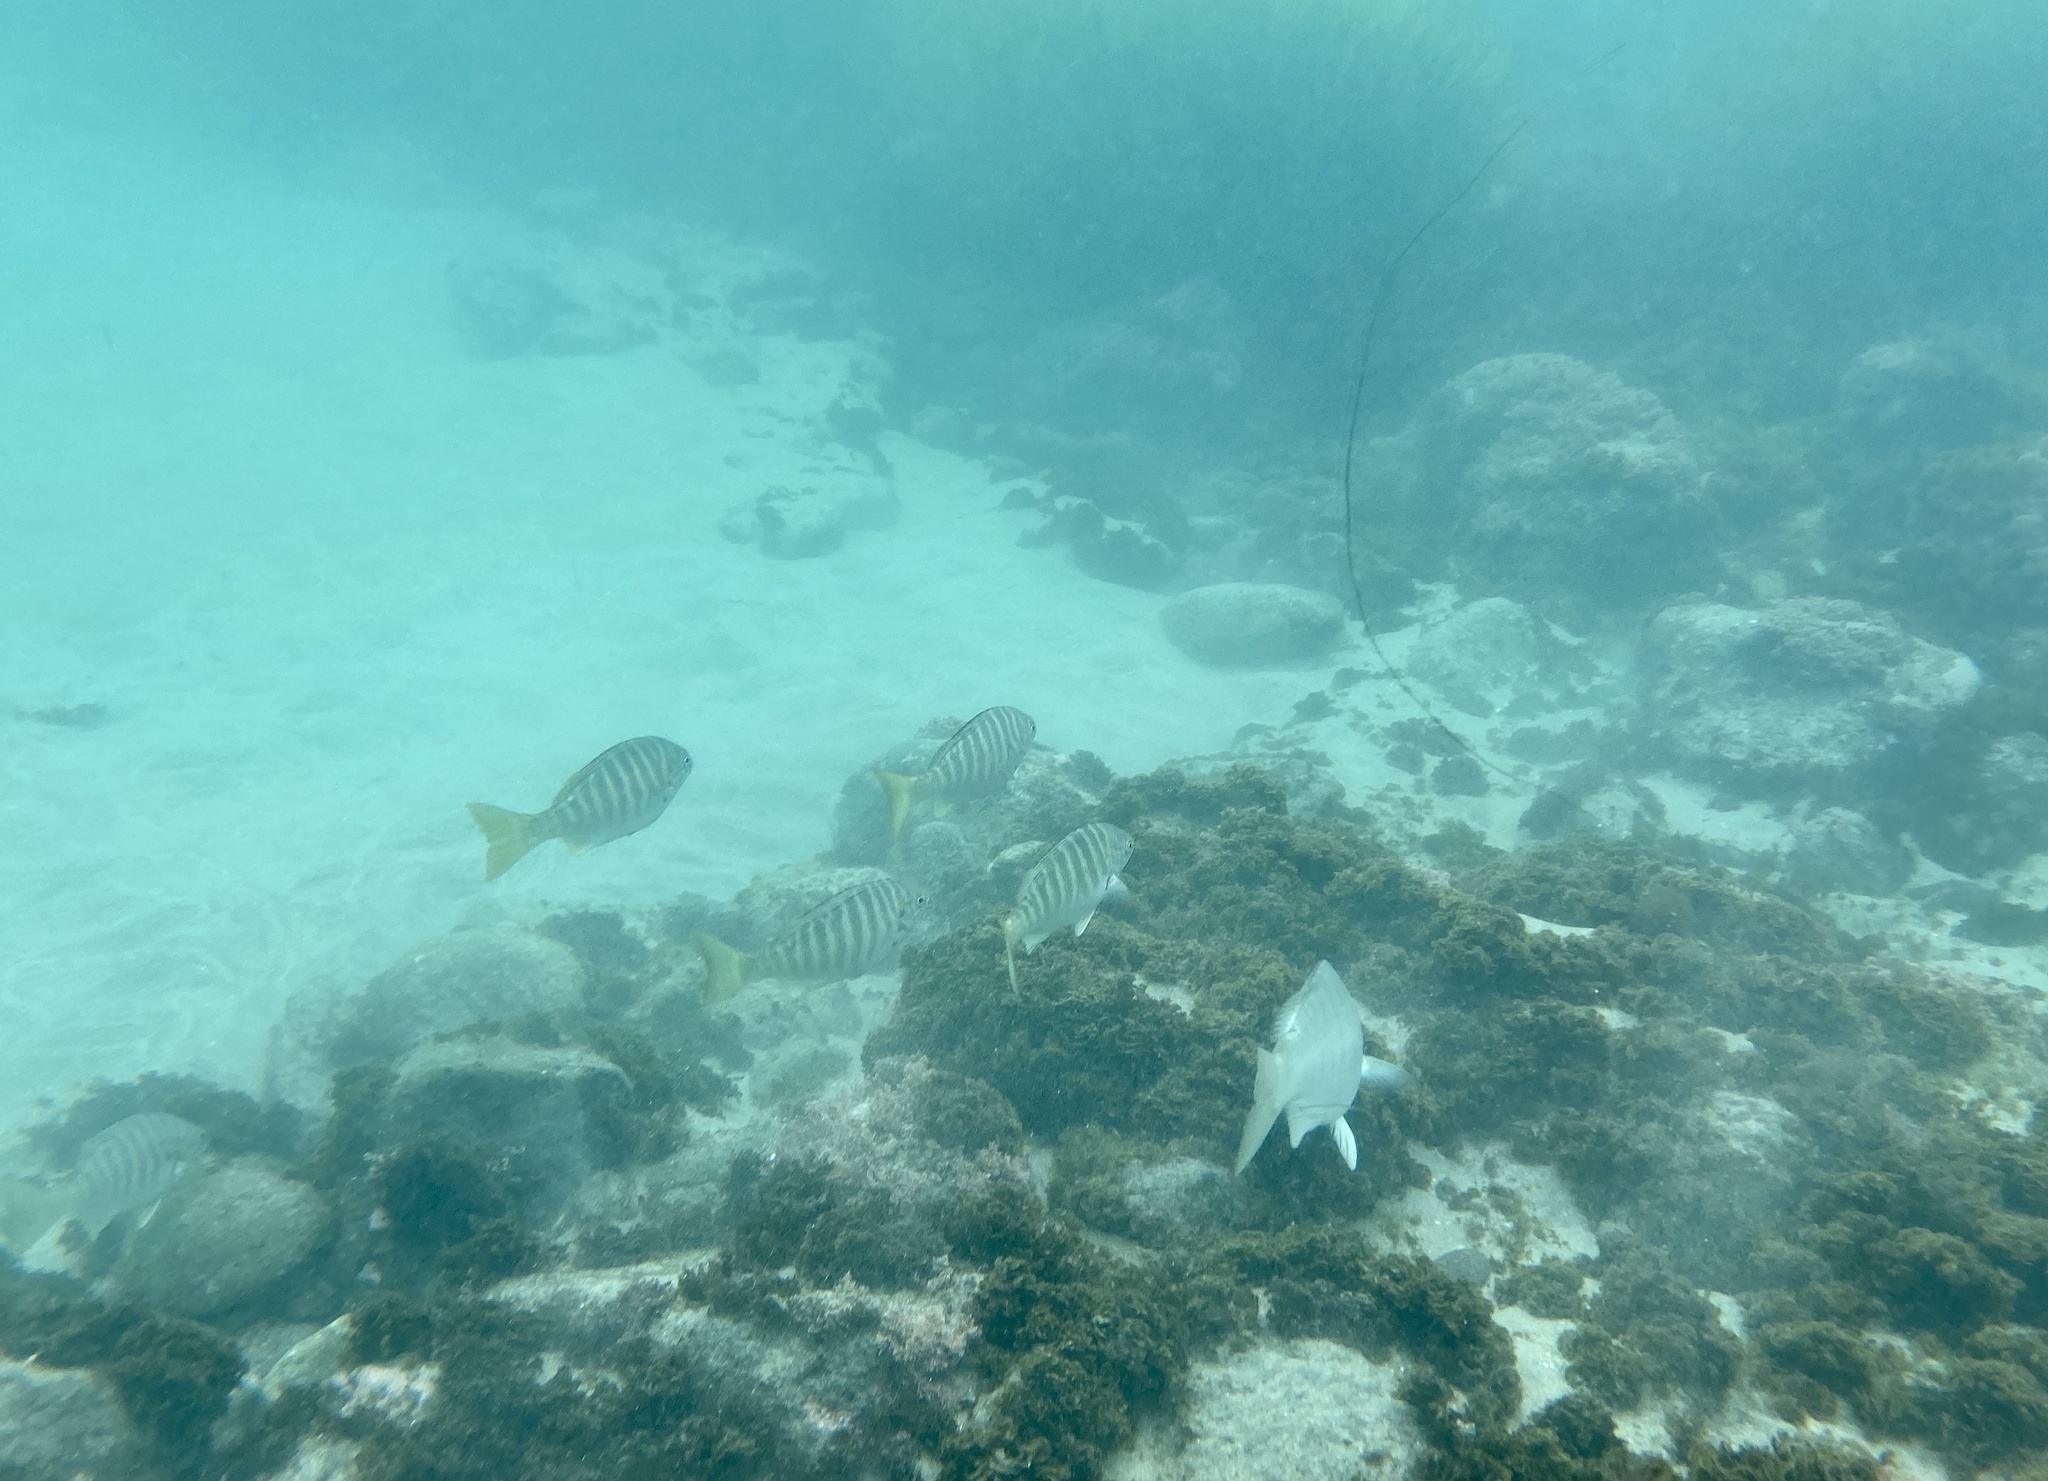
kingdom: Animalia
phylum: Chordata
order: Perciformes
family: Kyphosidae
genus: Kyphosus
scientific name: Kyphosus azureus
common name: Perch
